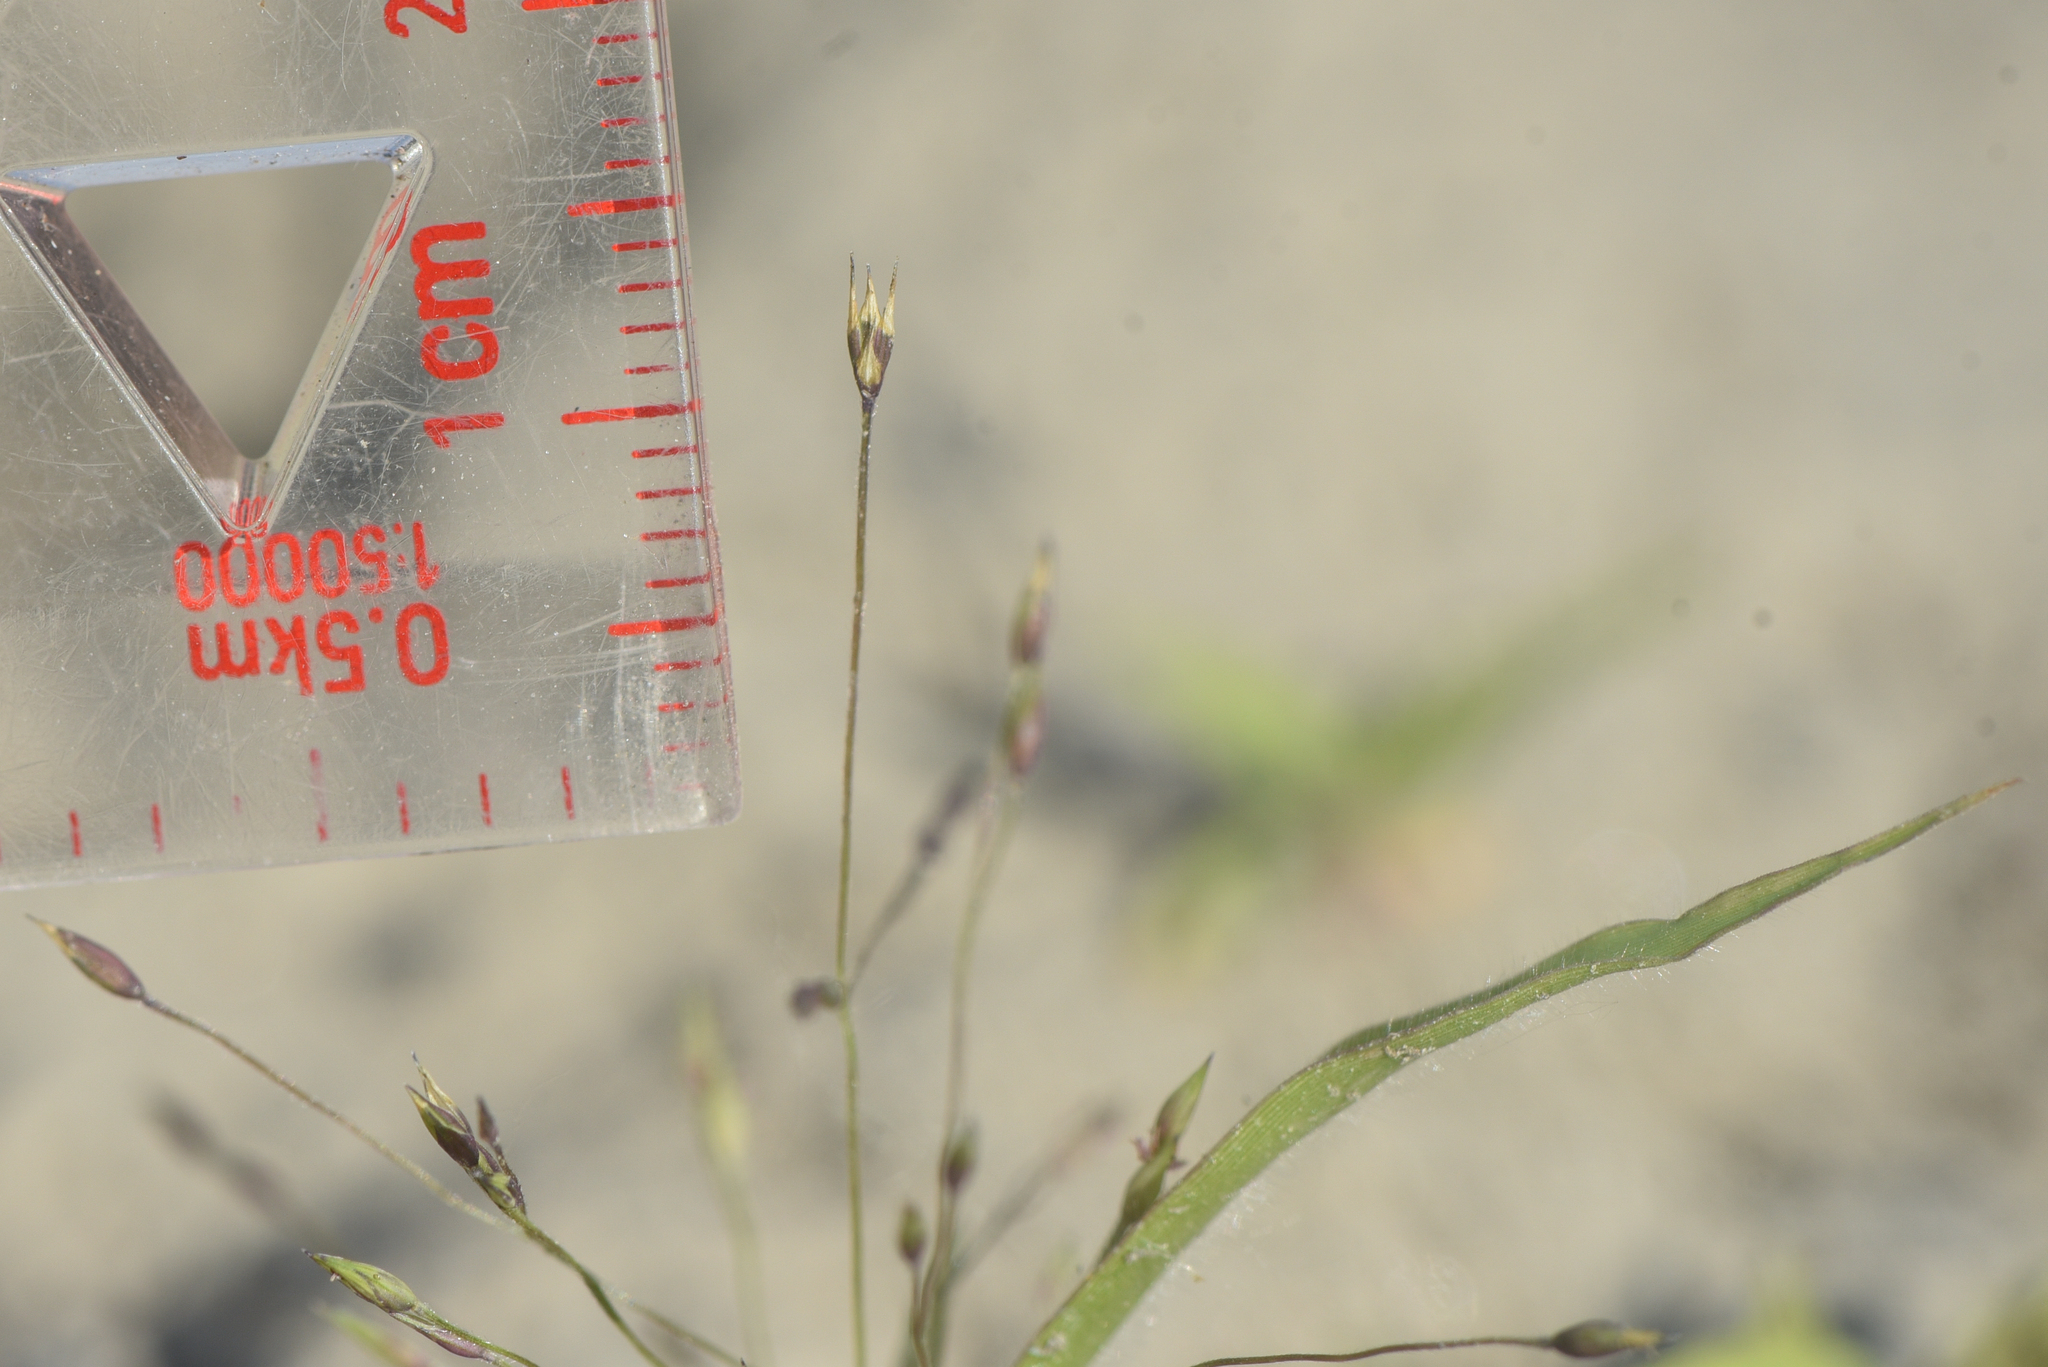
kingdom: Plantae
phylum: Tracheophyta
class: Liliopsida
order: Poales
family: Poaceae
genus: Panicum
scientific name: Panicum capillare
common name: Witch-grass
